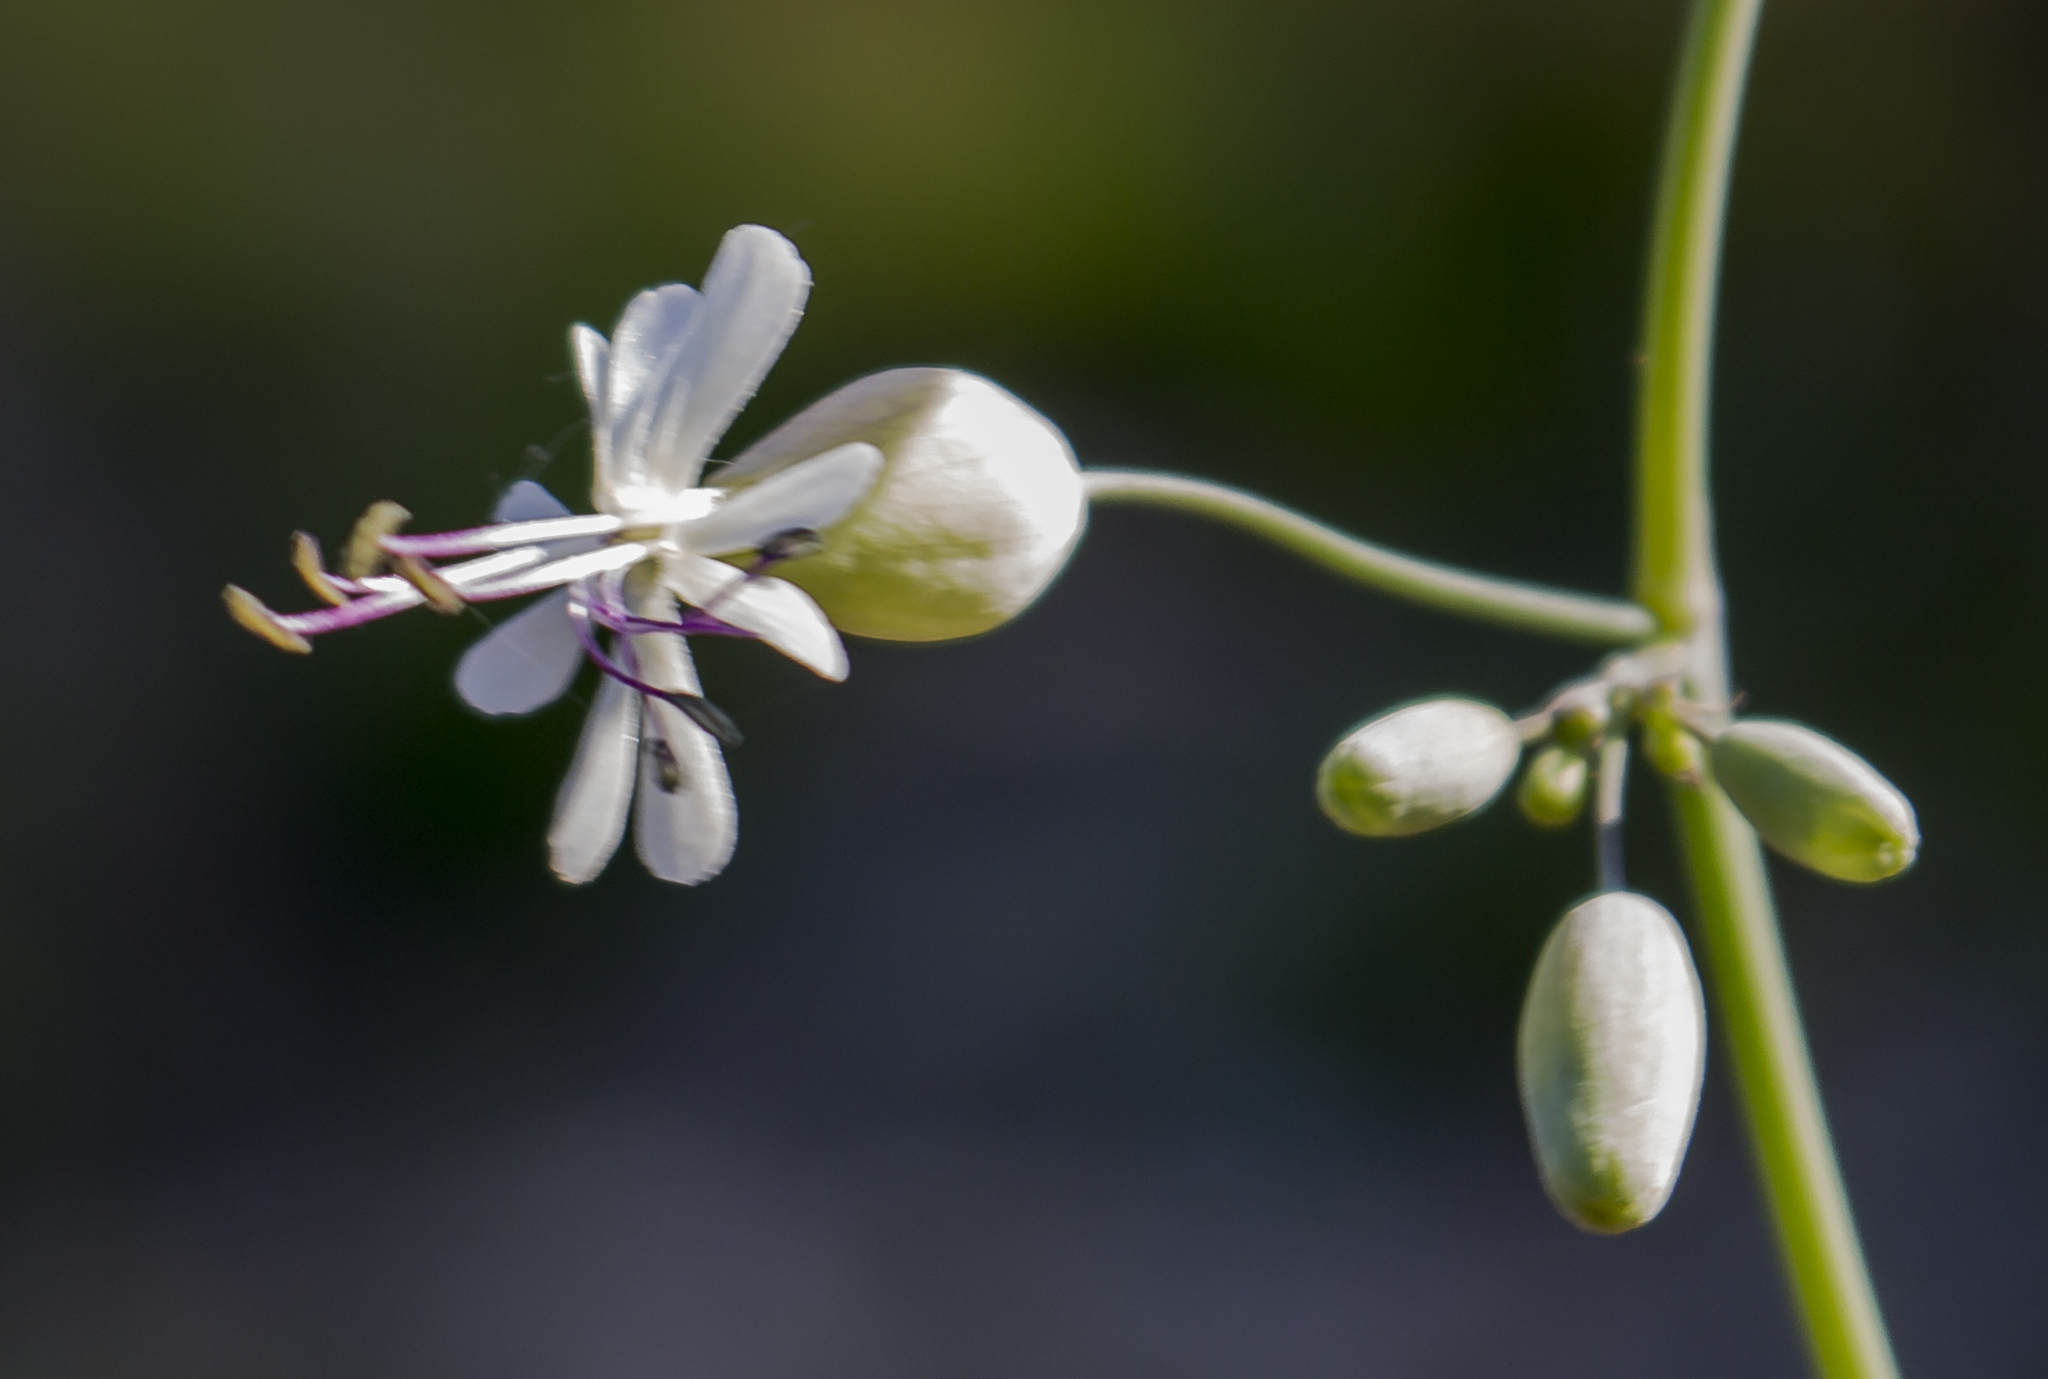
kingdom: Plantae
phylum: Tracheophyta
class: Magnoliopsida
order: Caryophyllales
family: Caryophyllaceae
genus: Silene
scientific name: Silene csereii
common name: Balkan catchfly
